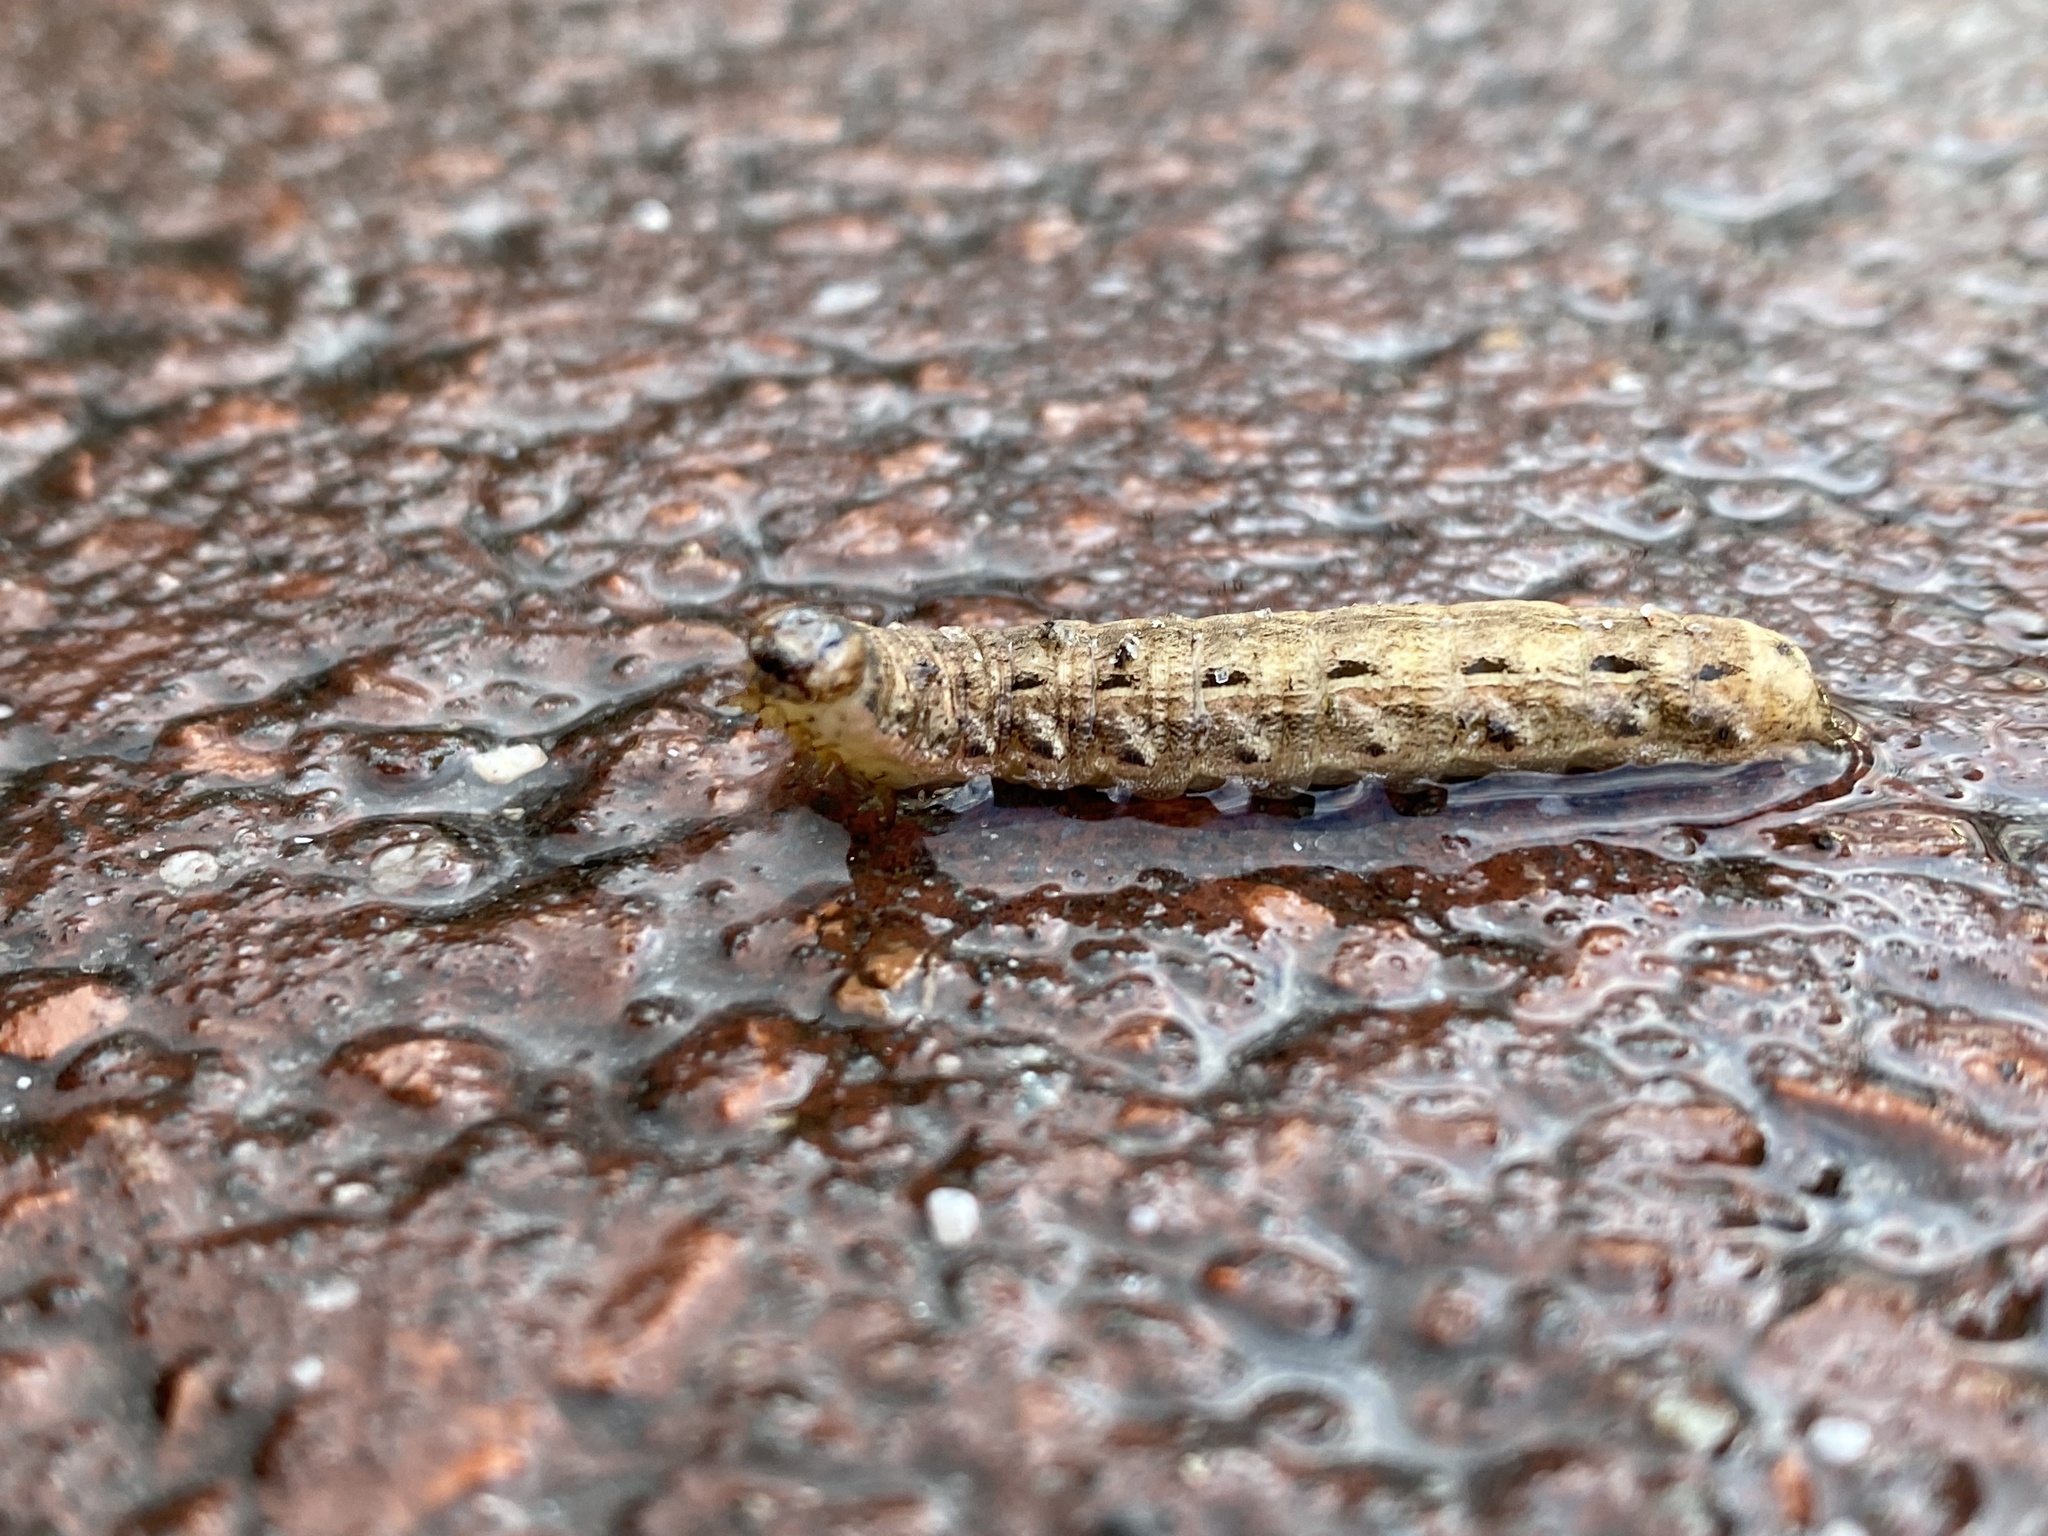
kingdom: Animalia
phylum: Arthropoda
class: Insecta
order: Lepidoptera
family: Noctuidae
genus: Noctua
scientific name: Noctua pronuba
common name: Large yellow underwing
